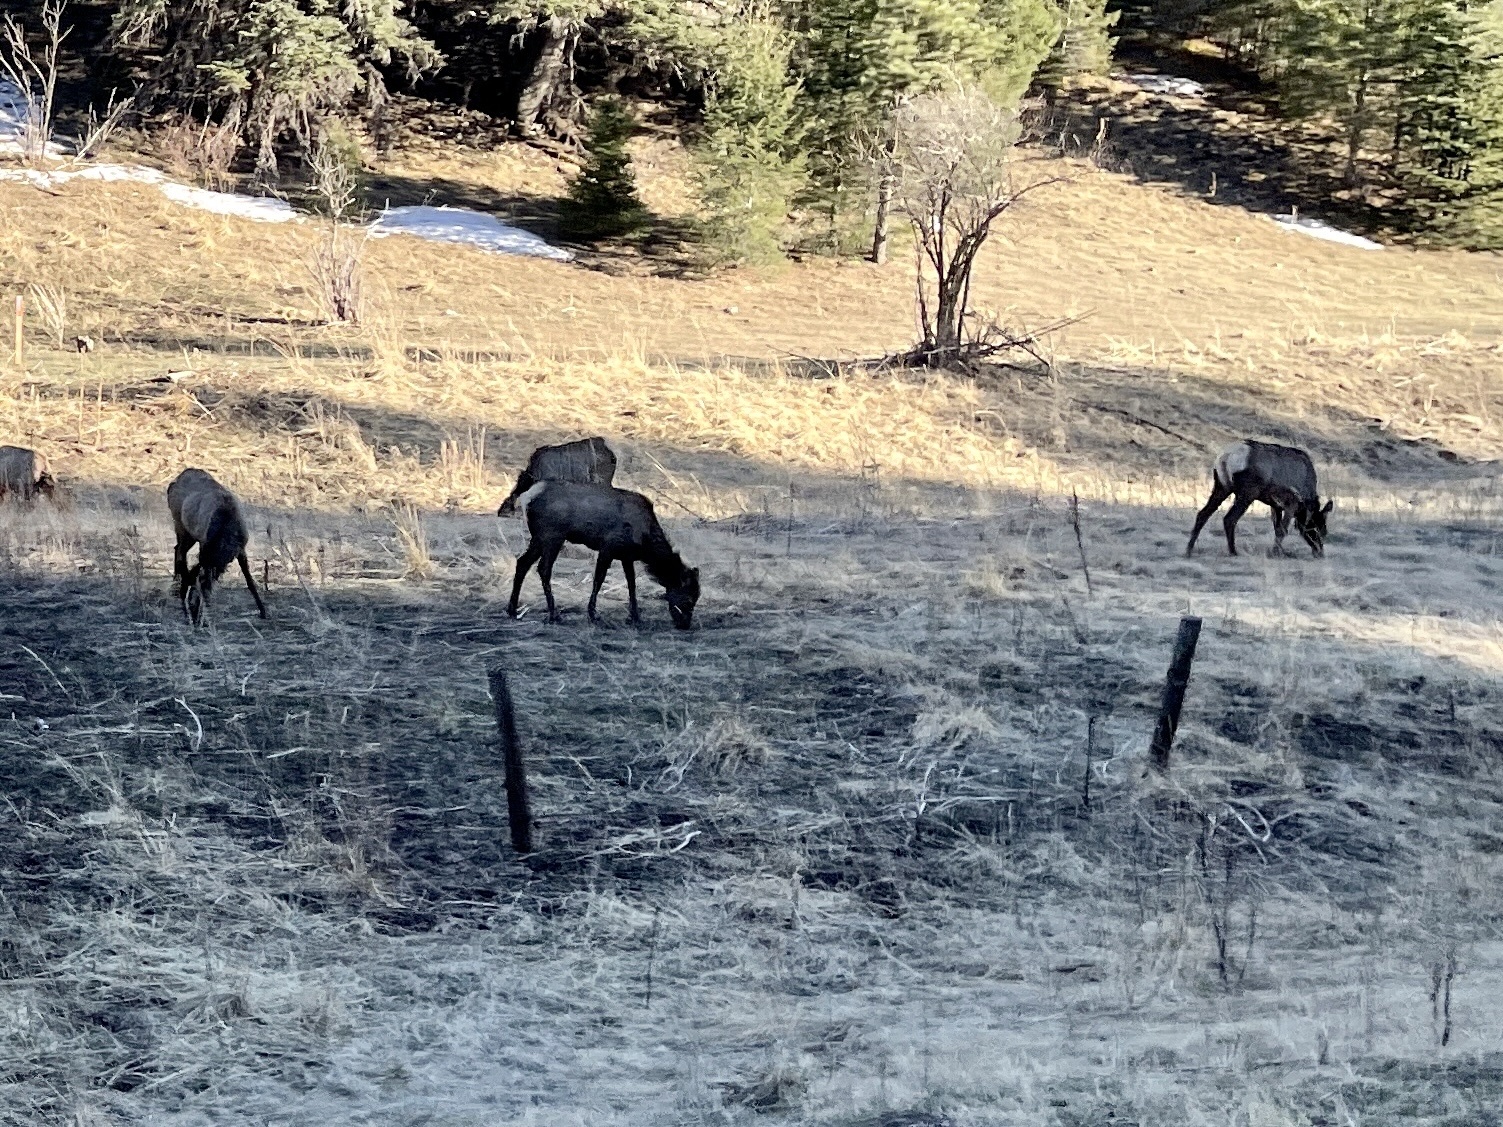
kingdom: Animalia
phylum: Chordata
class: Mammalia
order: Artiodactyla
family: Cervidae
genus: Cervus
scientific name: Cervus elaphus
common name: Red deer
